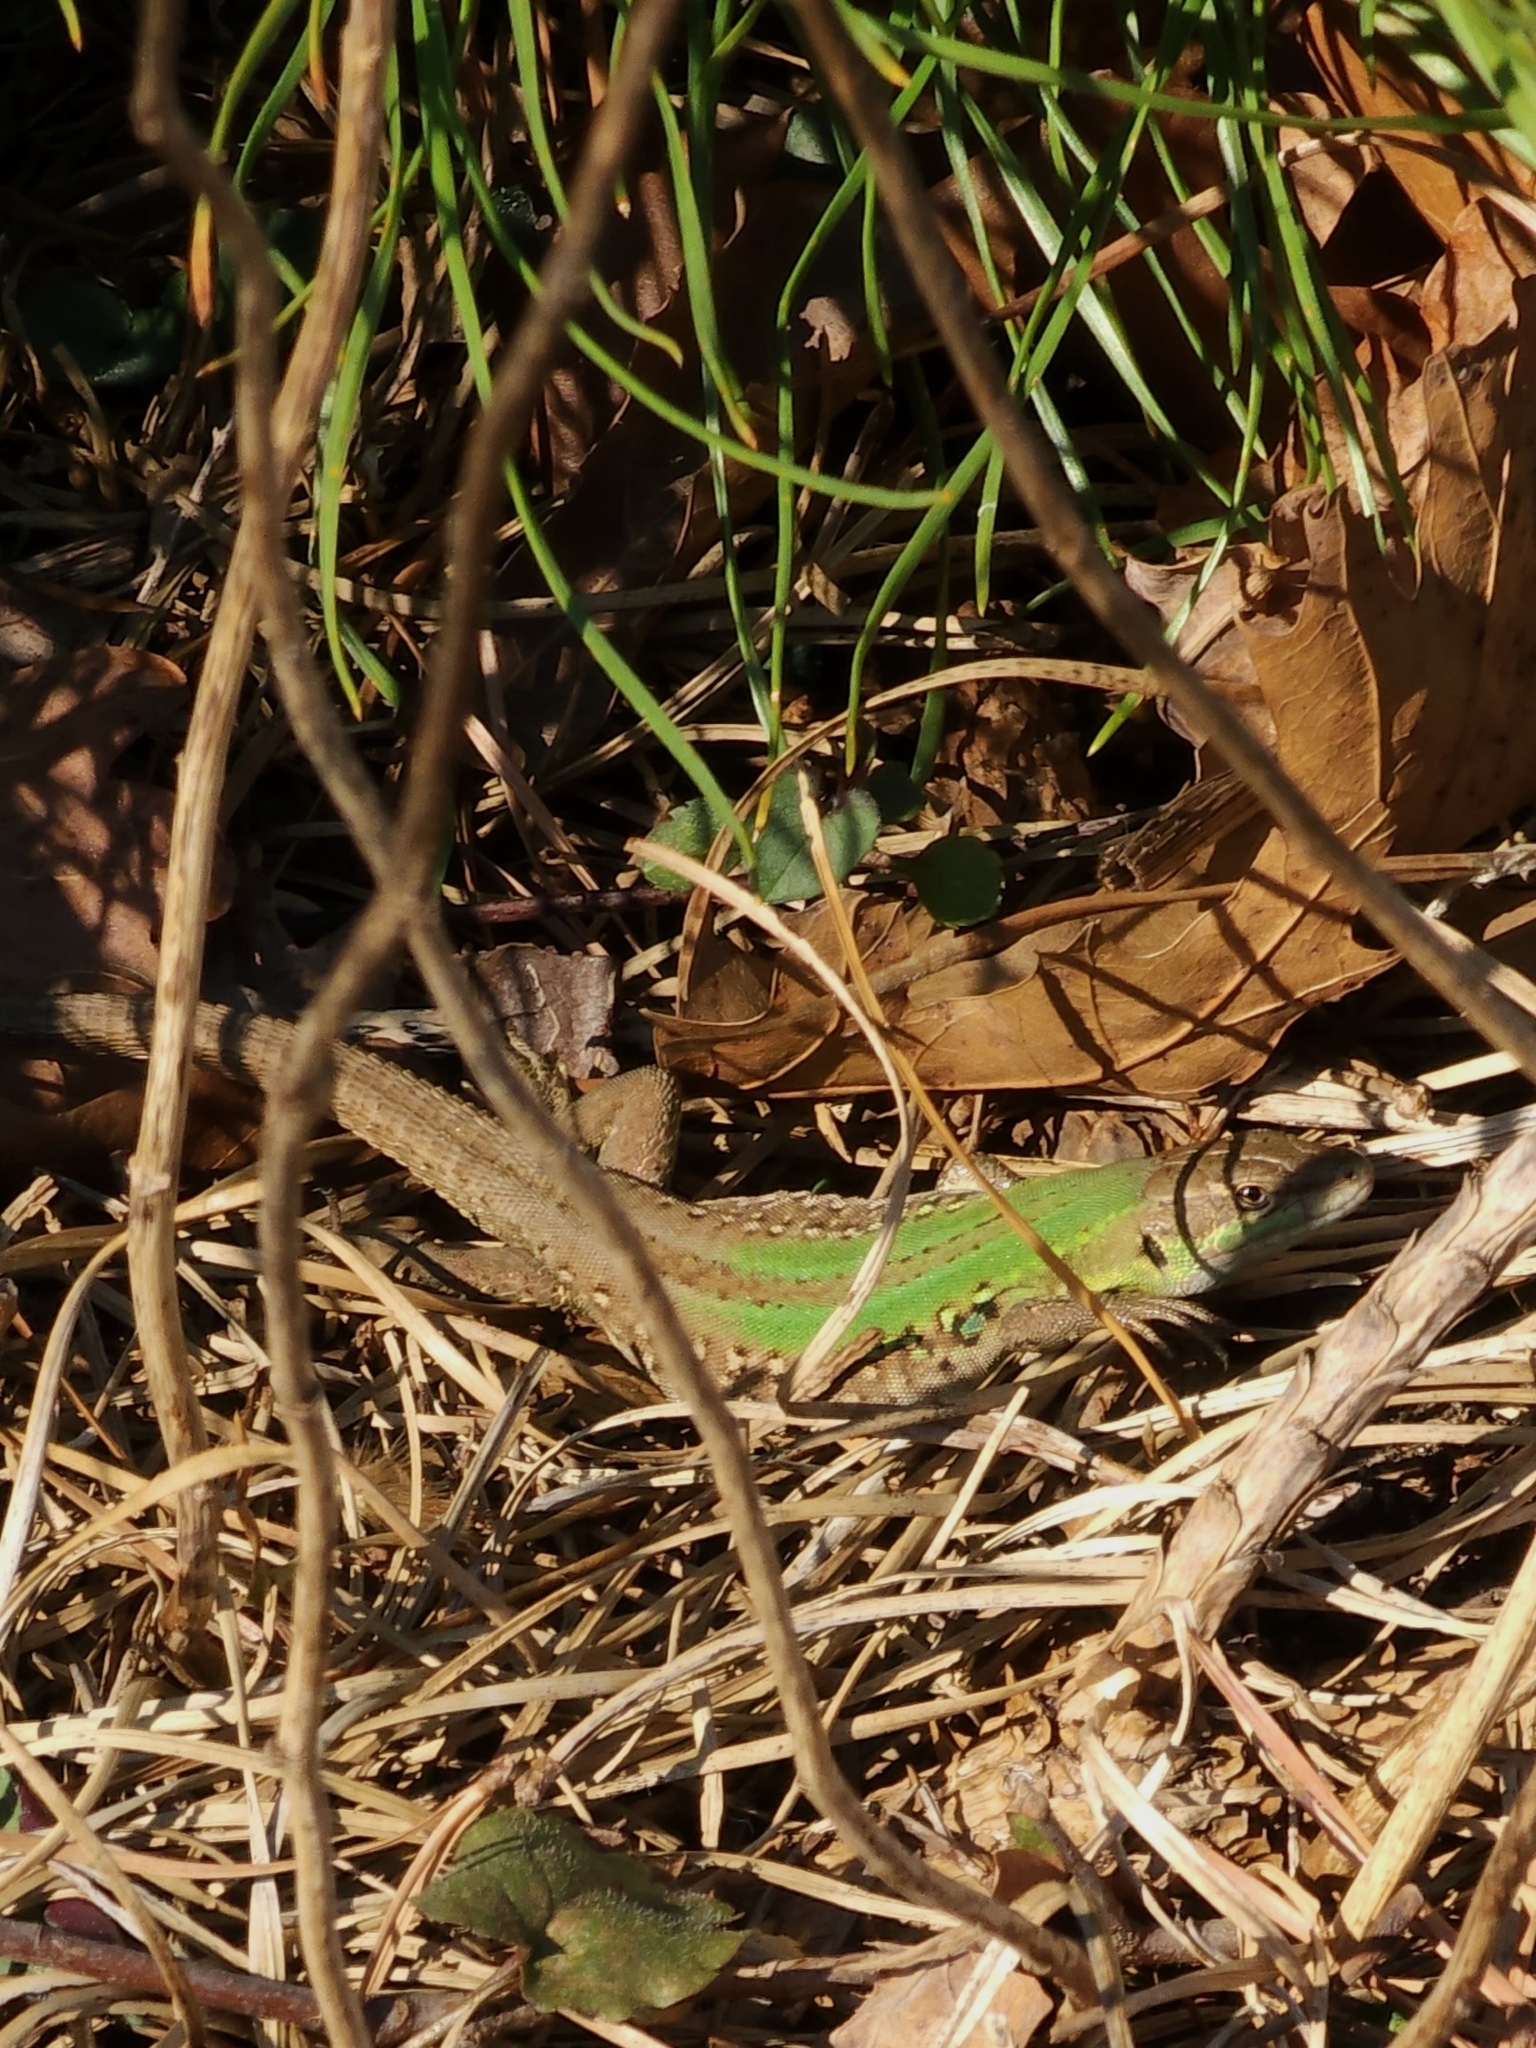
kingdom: Animalia
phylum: Chordata
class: Squamata
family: Lacertidae
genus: Podarcis
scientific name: Podarcis siculus
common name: Italian wall lizard
